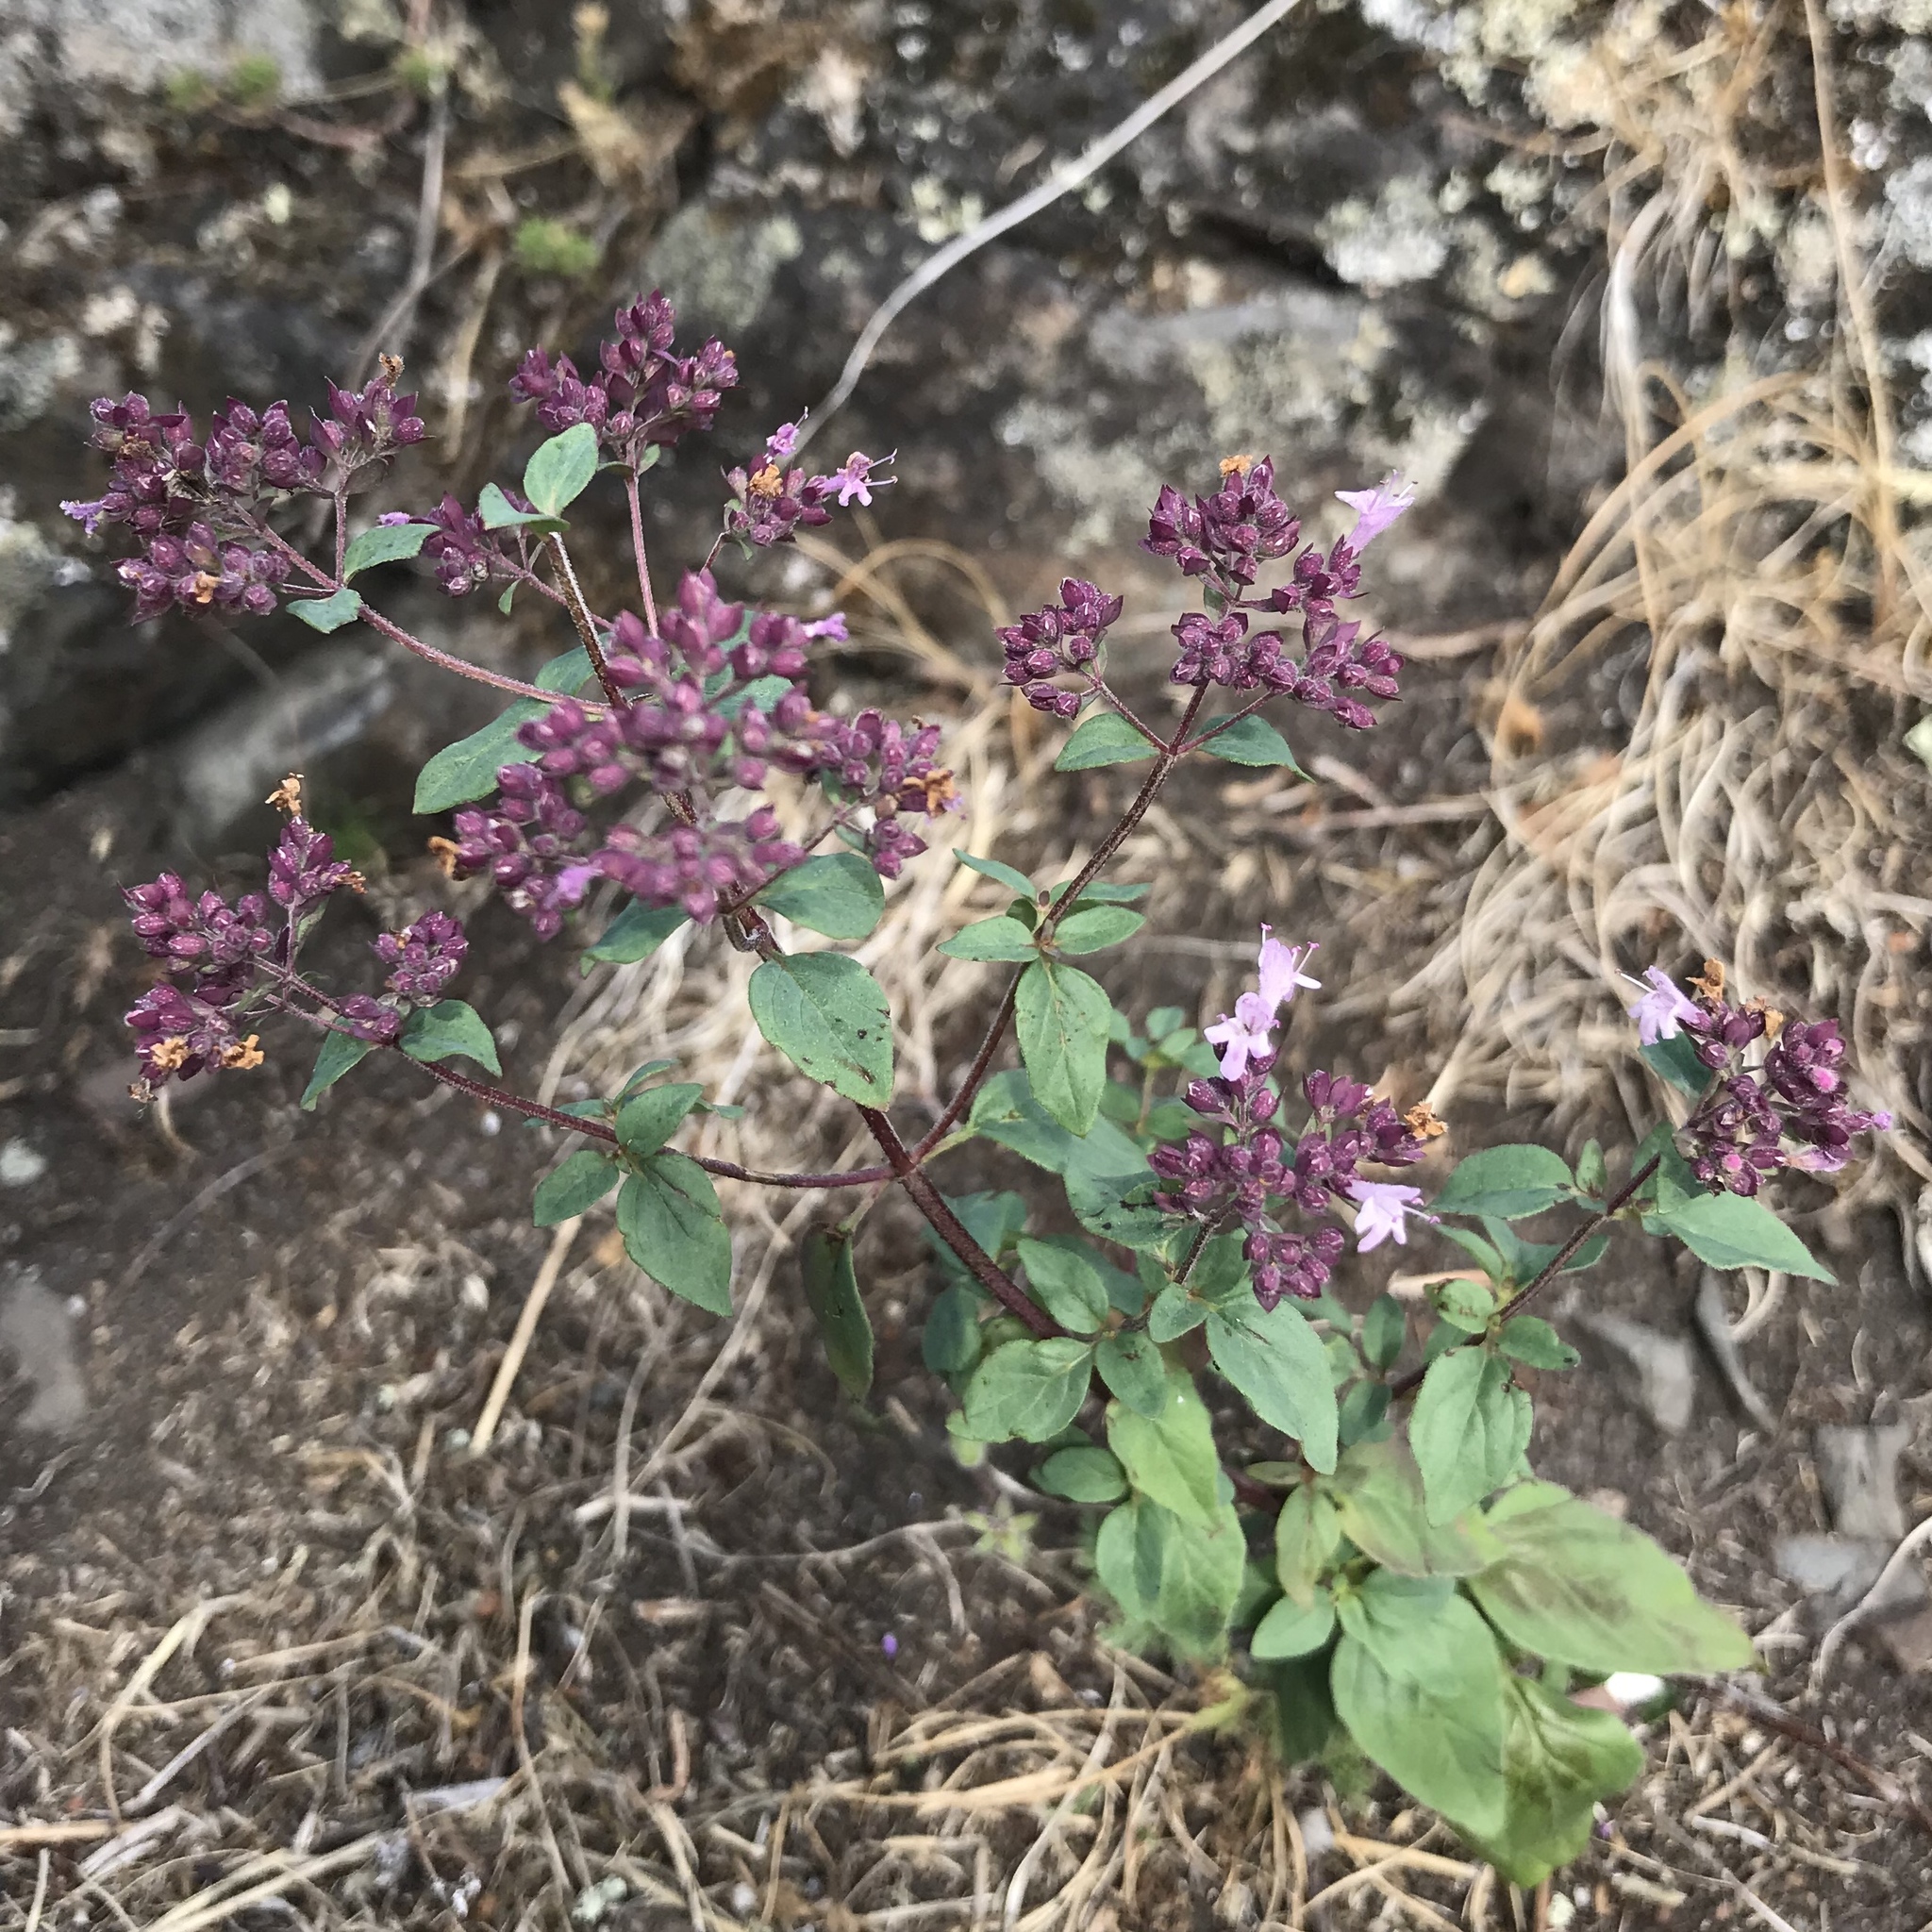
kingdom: Plantae
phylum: Tracheophyta
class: Magnoliopsida
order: Lamiales
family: Lamiaceae
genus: Origanum
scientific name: Origanum vulgare
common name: Wild marjoram
